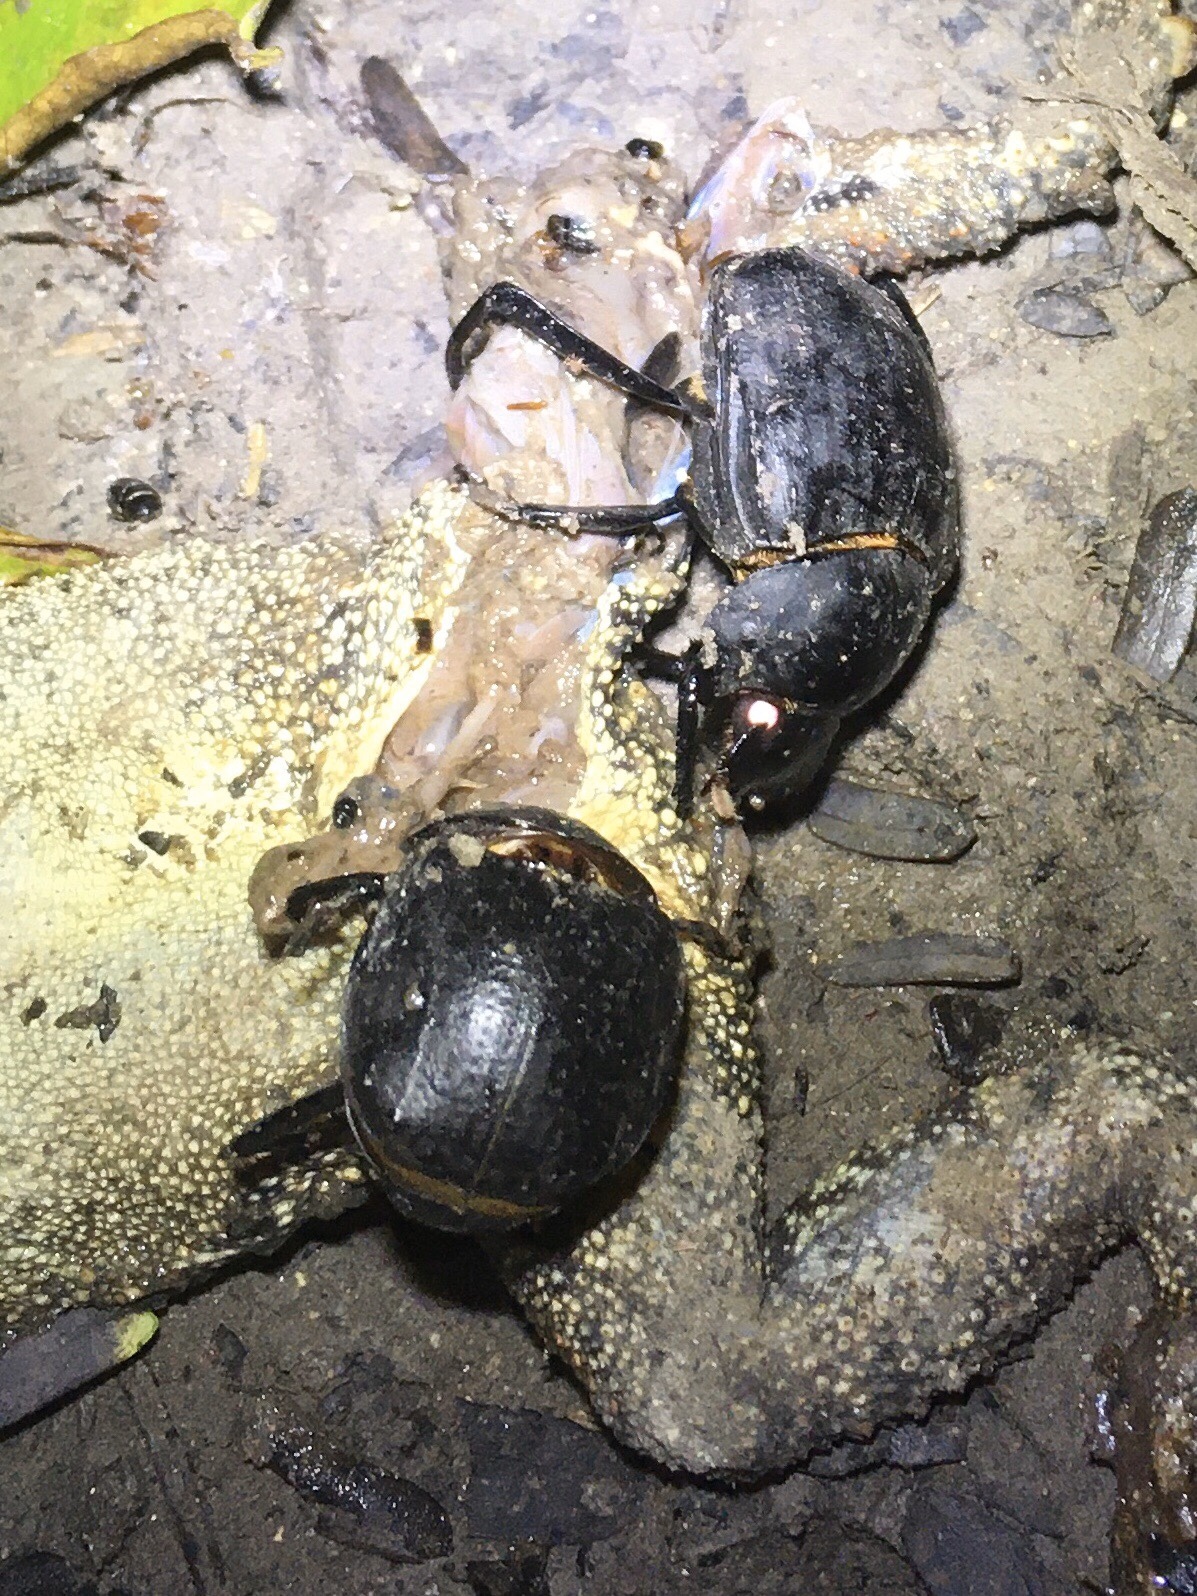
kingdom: Animalia
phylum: Arthropoda
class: Insecta
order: Coleoptera
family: Scarabaeidae
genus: Deltochilum
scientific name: Deltochilum gibbosum
